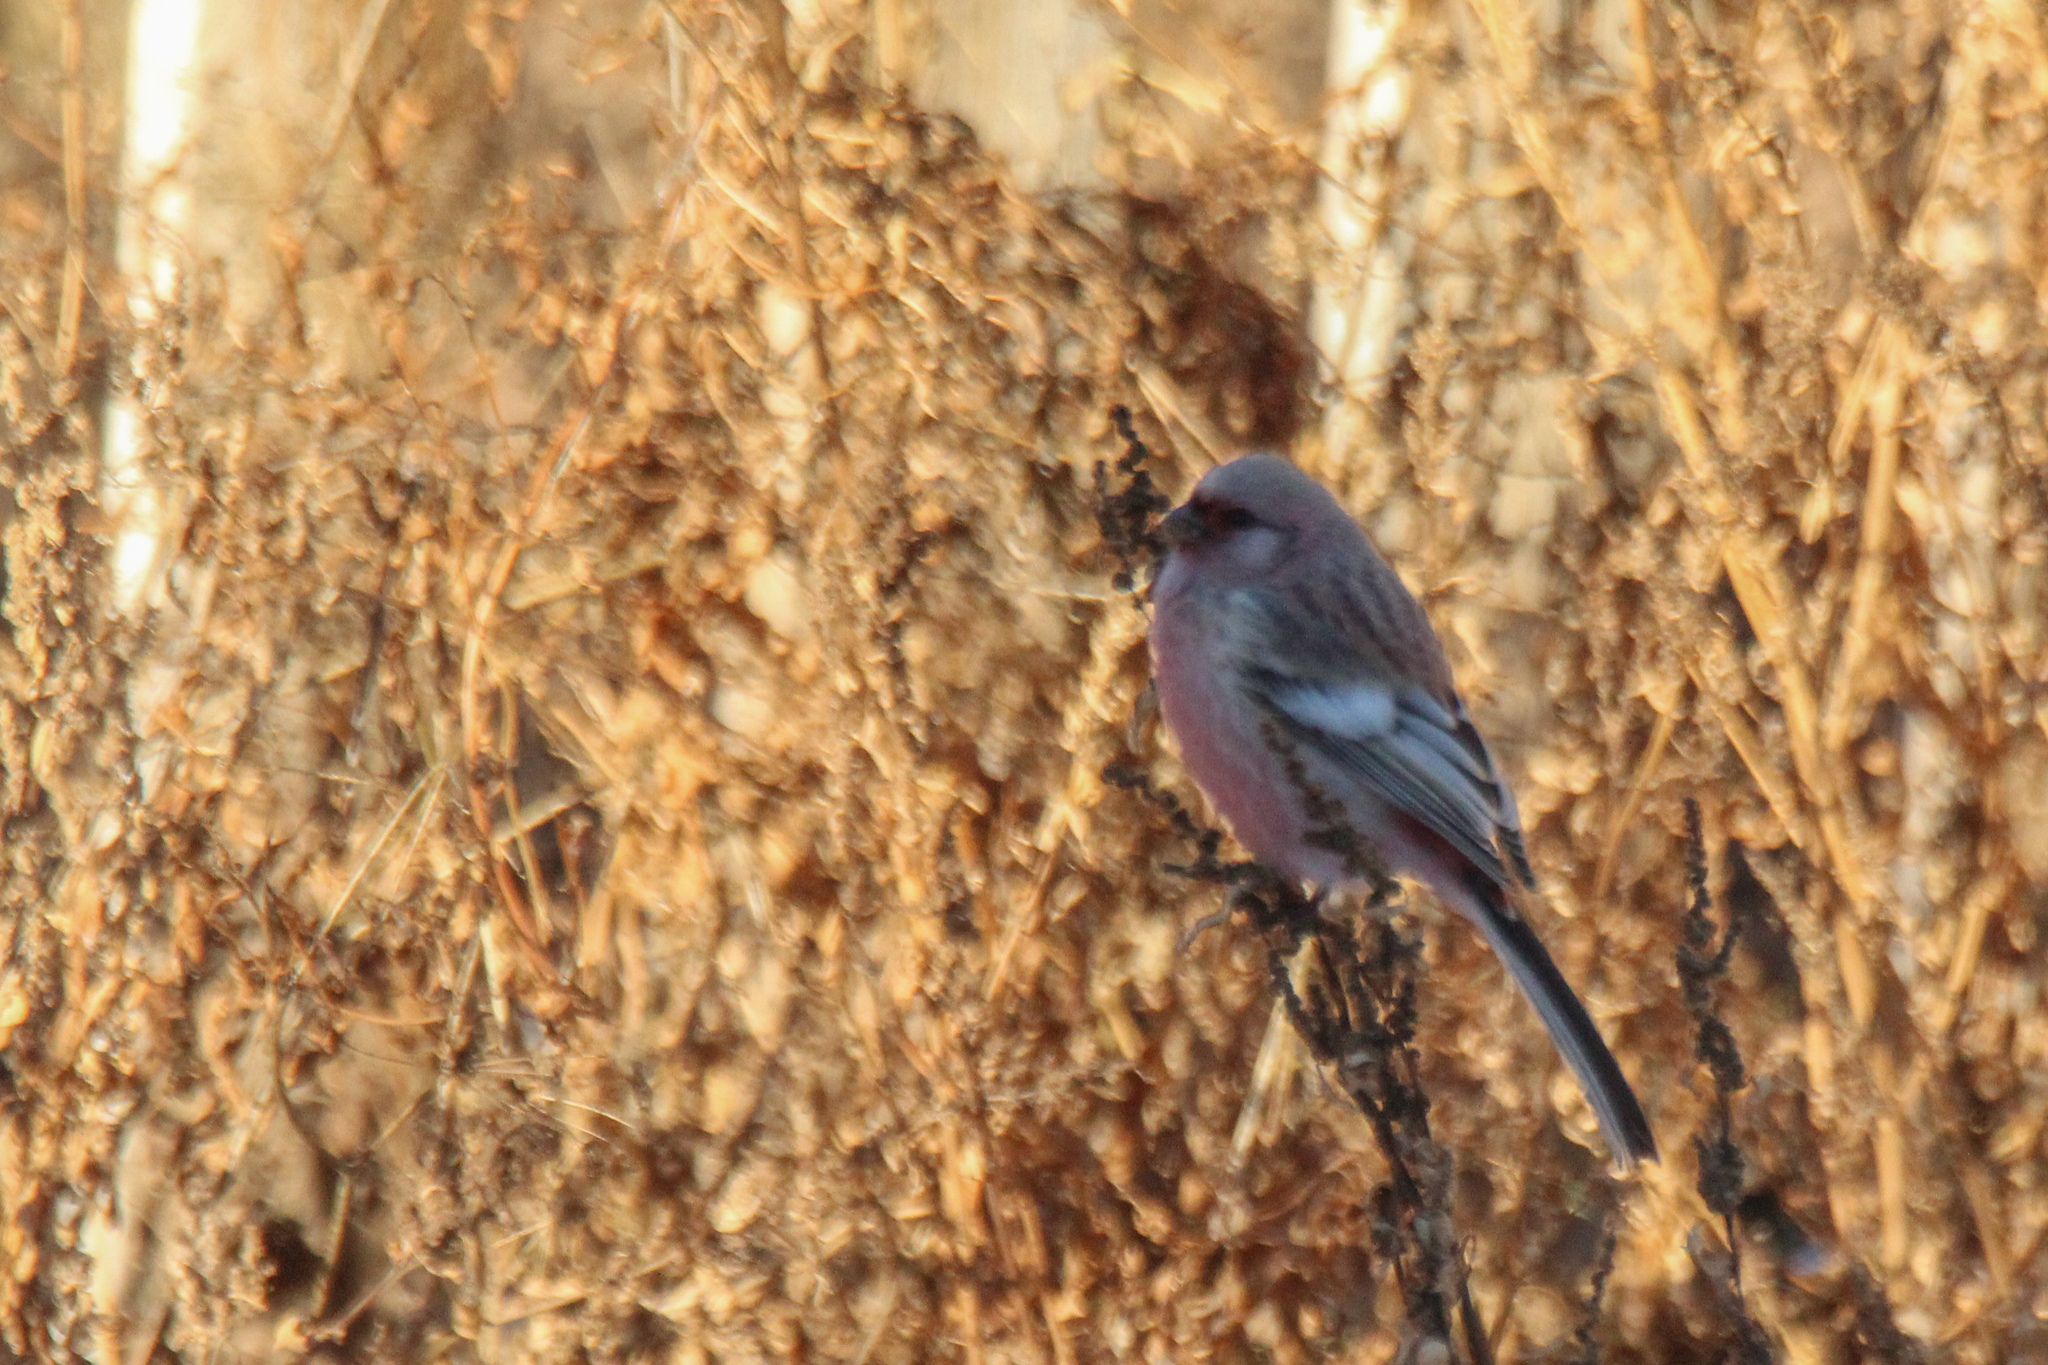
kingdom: Animalia
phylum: Chordata
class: Aves
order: Passeriformes
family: Fringillidae
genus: Carpodacus
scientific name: Carpodacus sibiricus
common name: Long-tailed rosefinch
